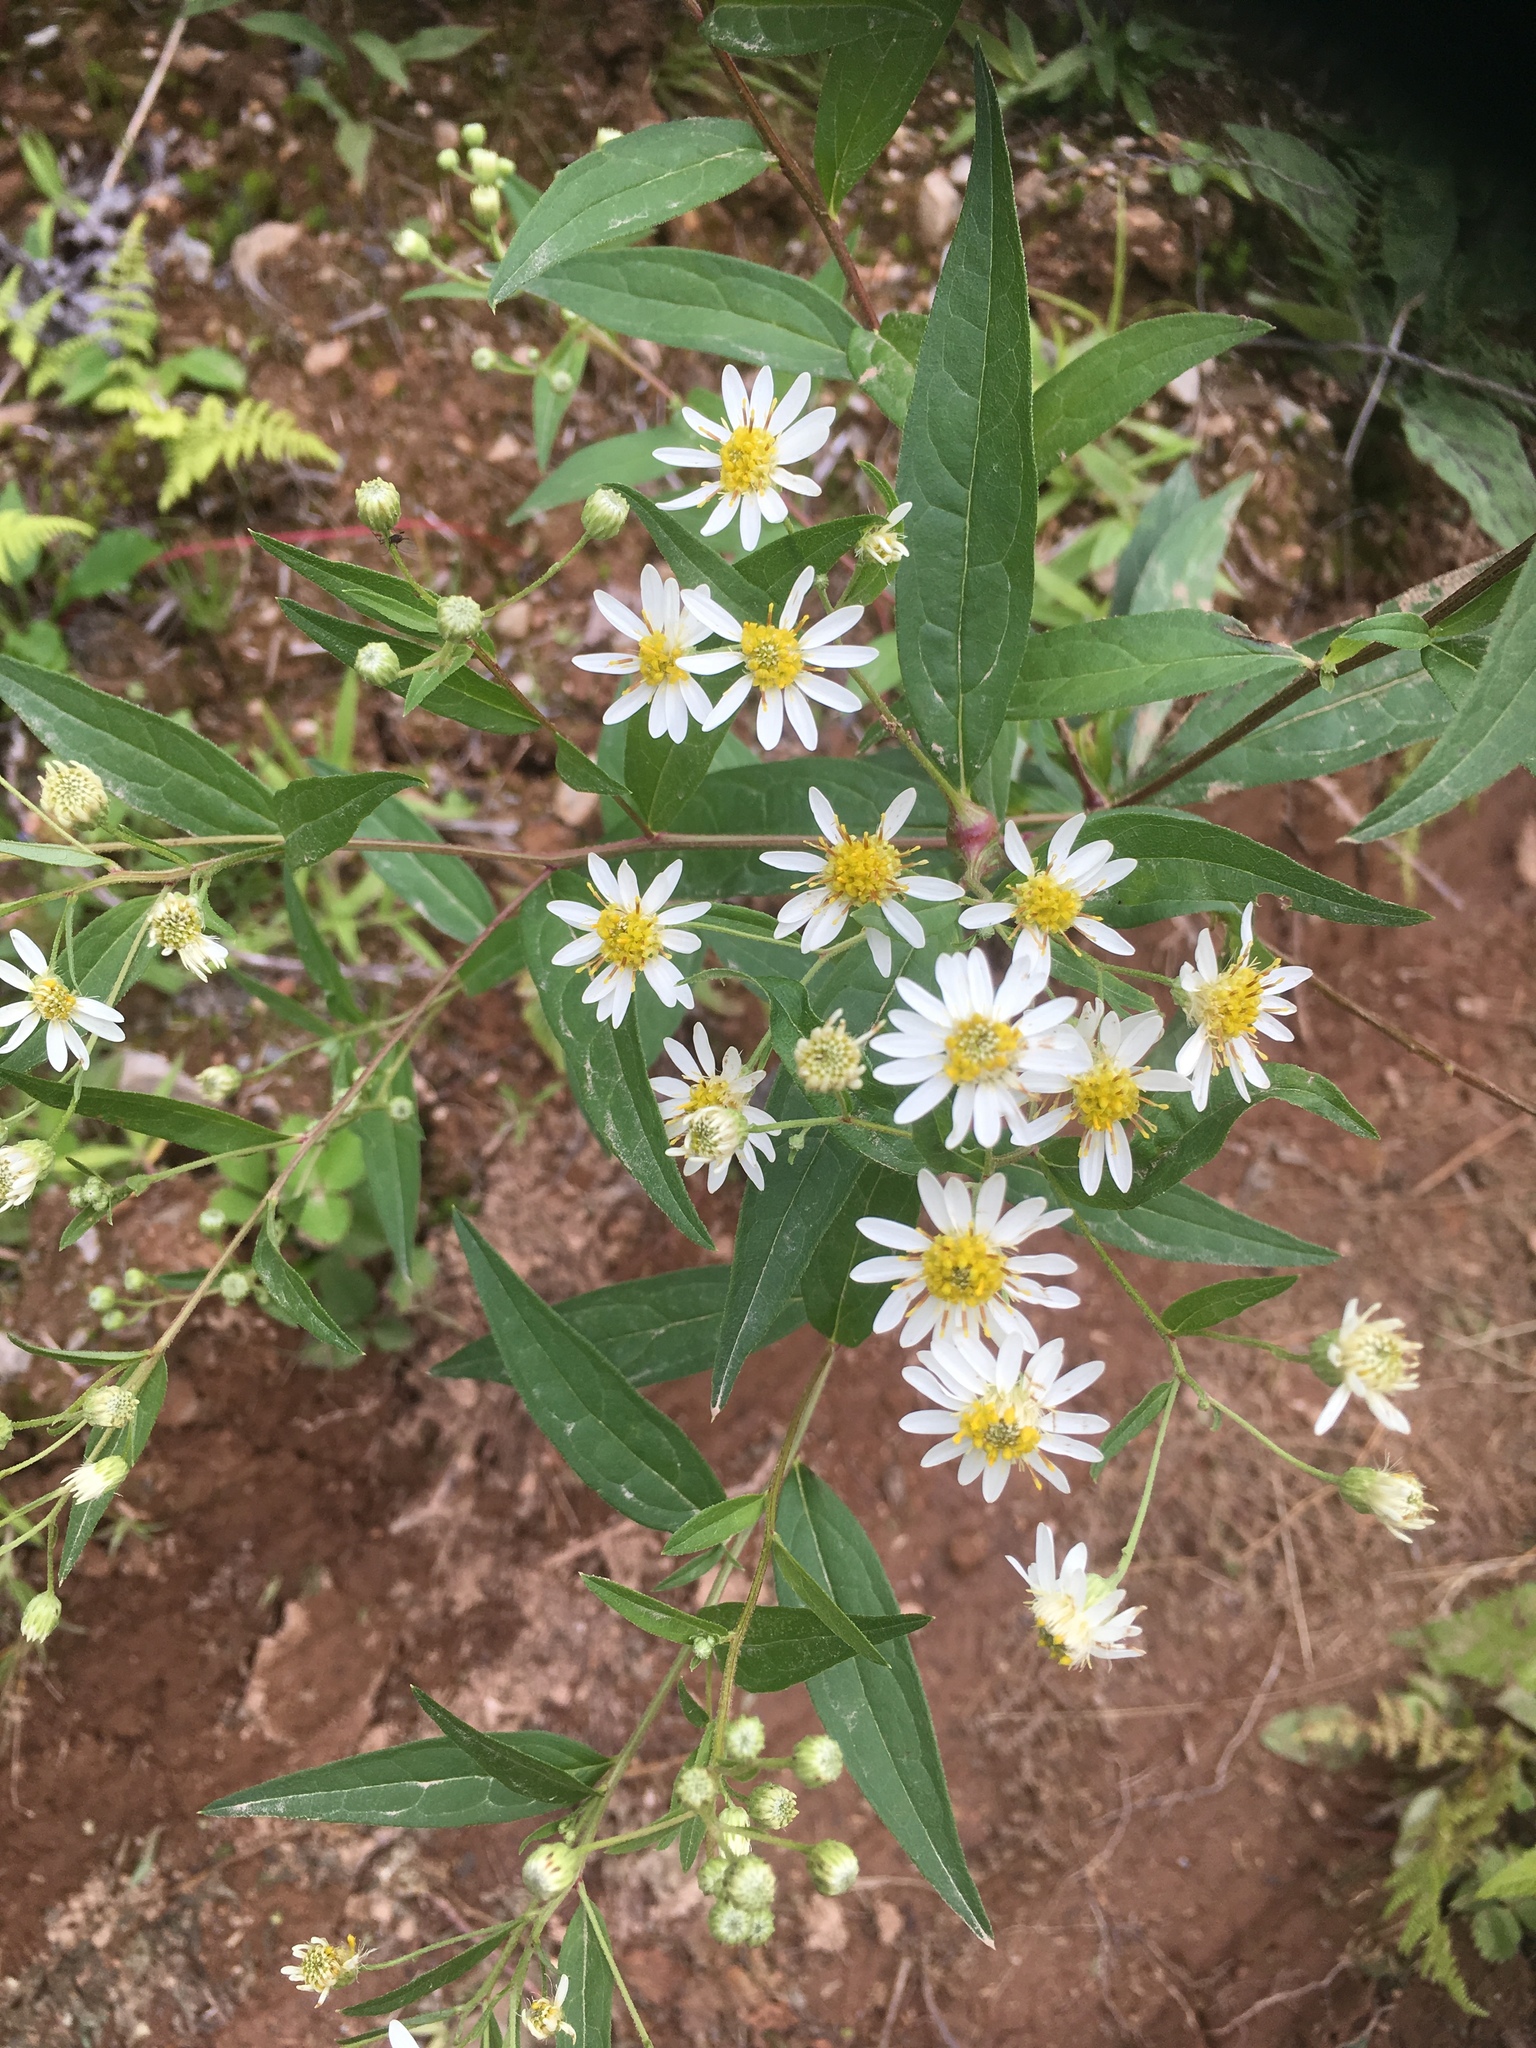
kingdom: Plantae
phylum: Tracheophyta
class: Magnoliopsida
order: Asterales
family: Asteraceae
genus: Doellingeria
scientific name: Doellingeria umbellata
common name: Flat-top white aster
